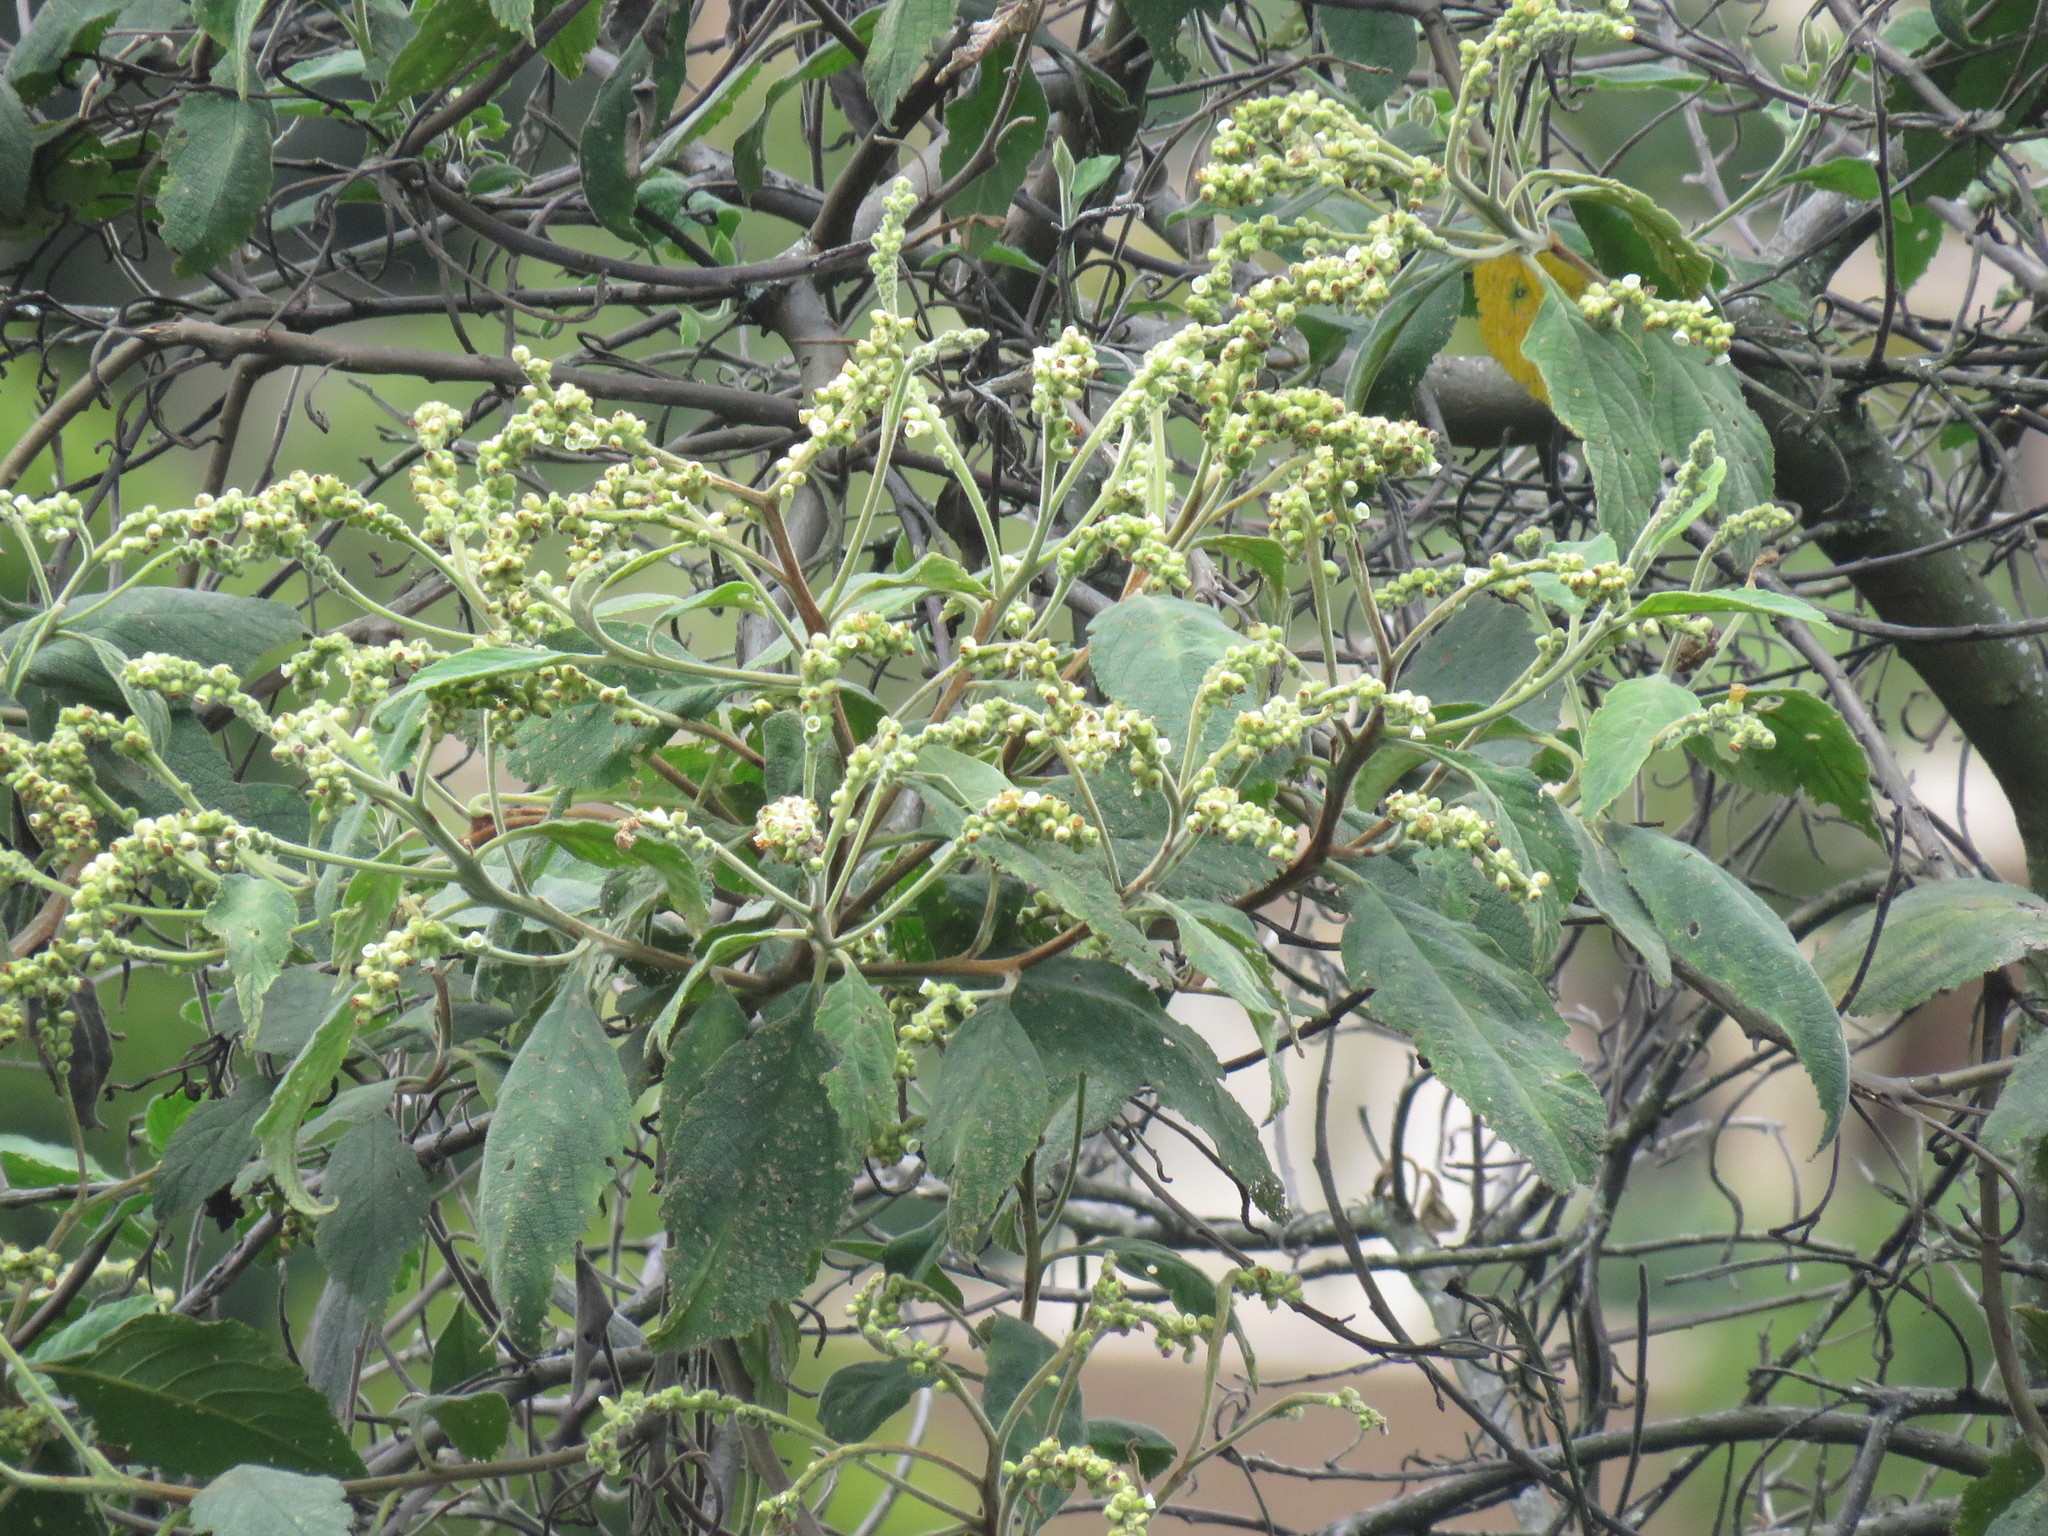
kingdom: Plantae
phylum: Tracheophyta
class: Magnoliopsida
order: Boraginales
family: Cordiaceae
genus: Varronia
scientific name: Varronia cylindrostachya
